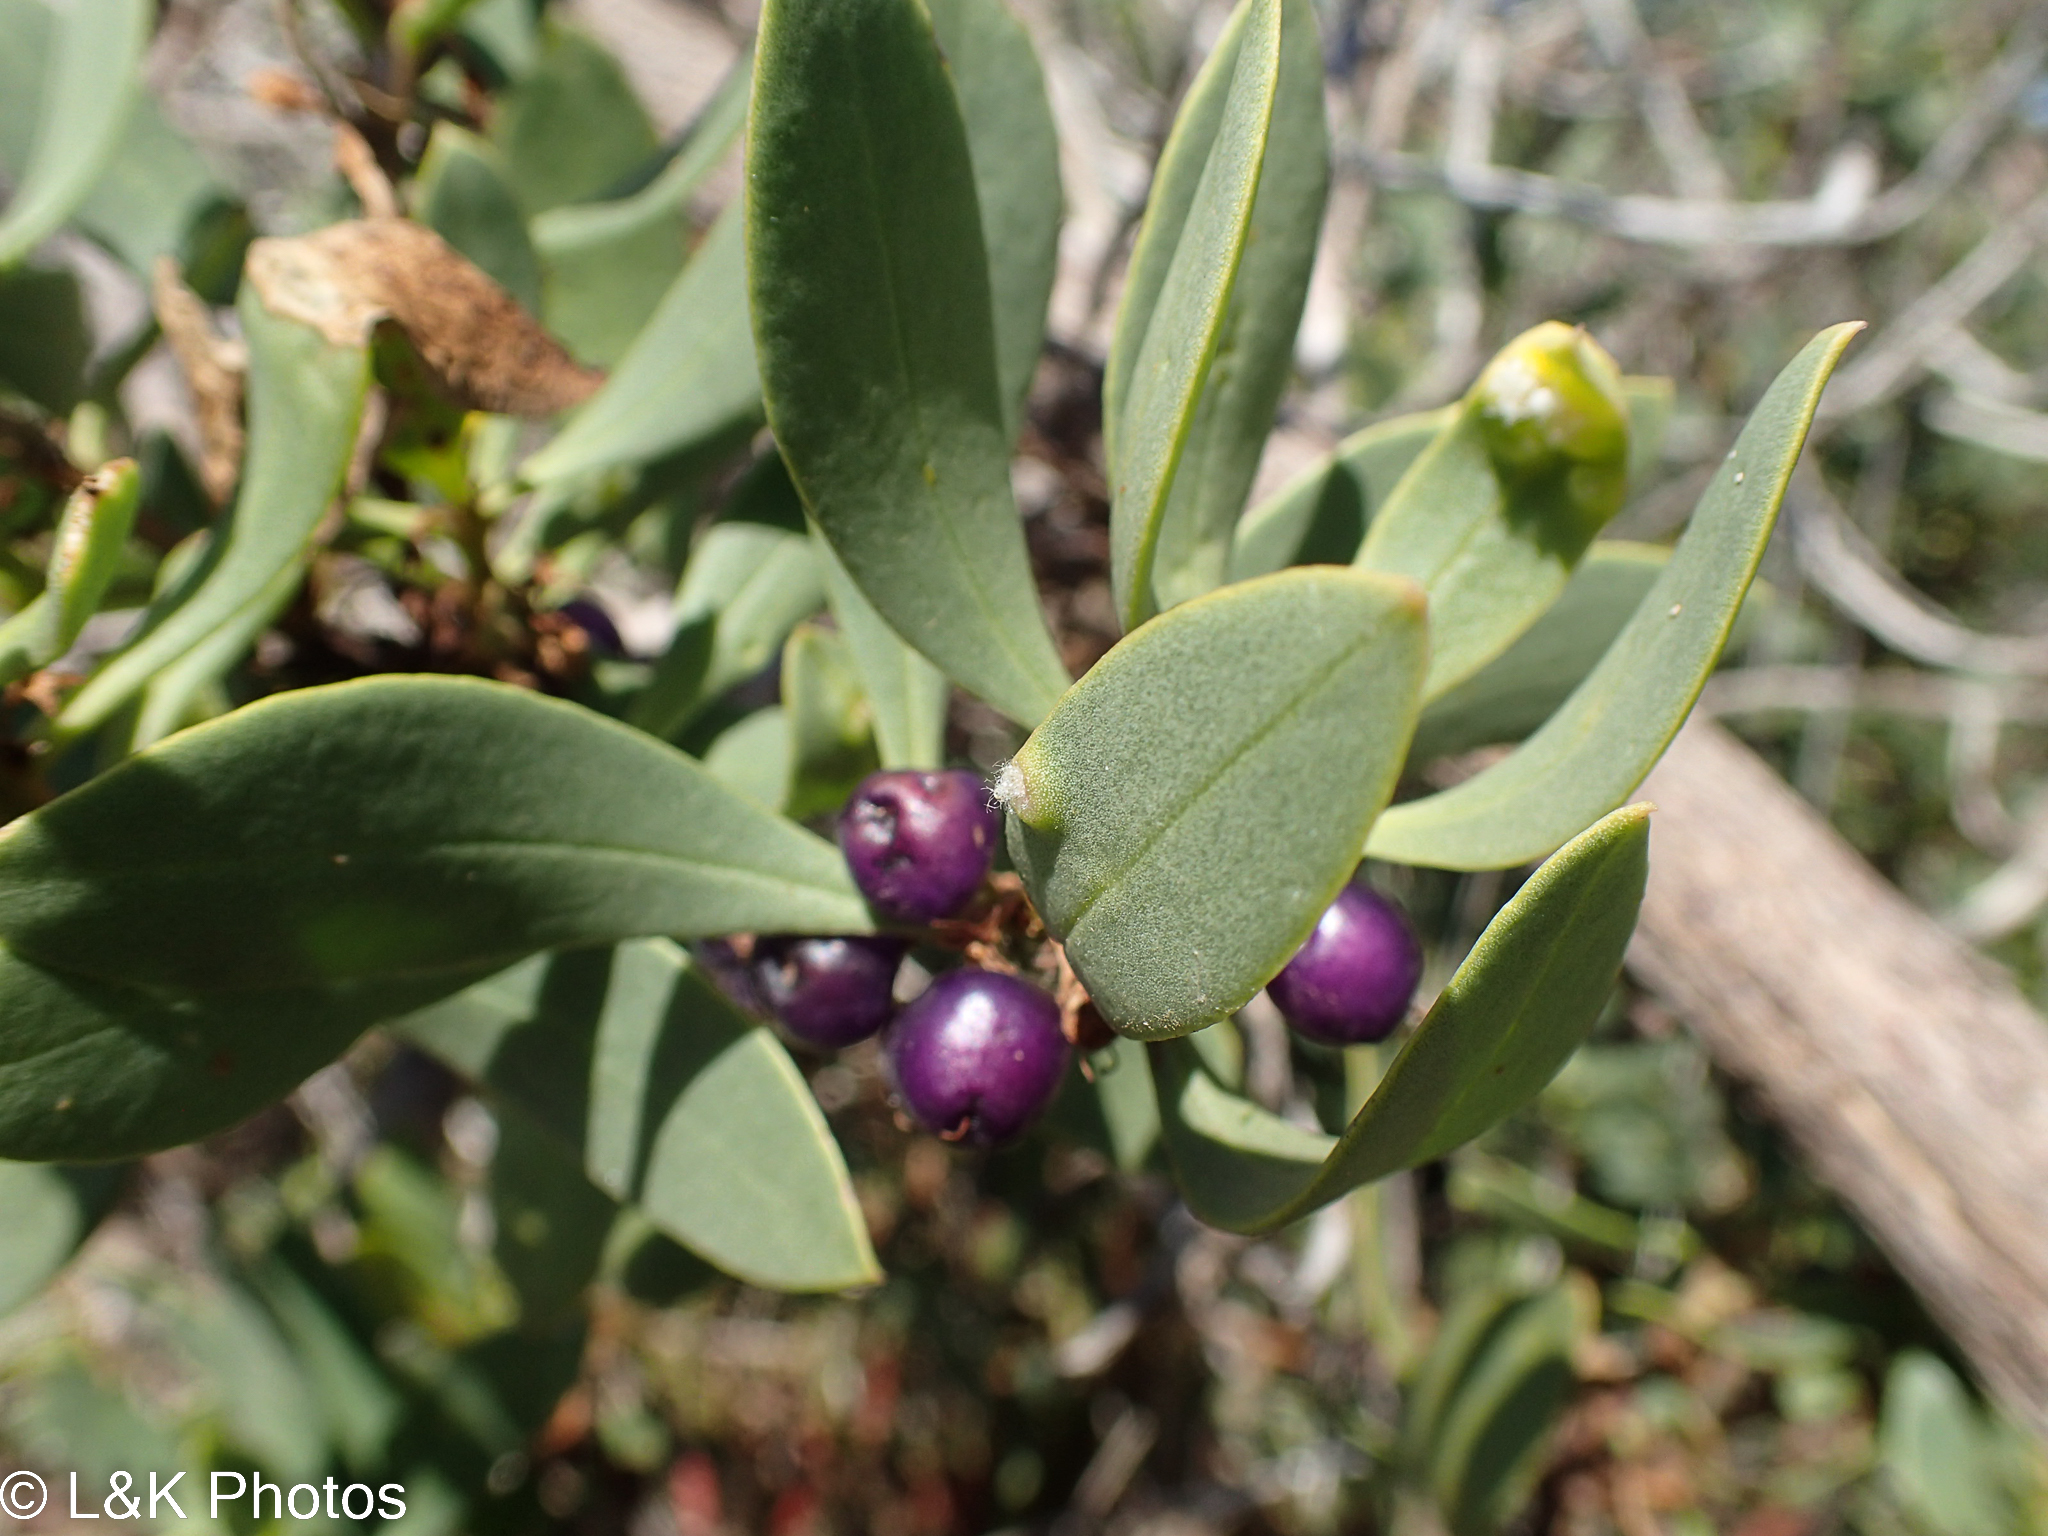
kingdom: Plantae
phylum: Tracheophyta
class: Magnoliopsida
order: Lamiales
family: Scrophulariaceae
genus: Myoporum
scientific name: Myoporum insulare
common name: Common boobialla
